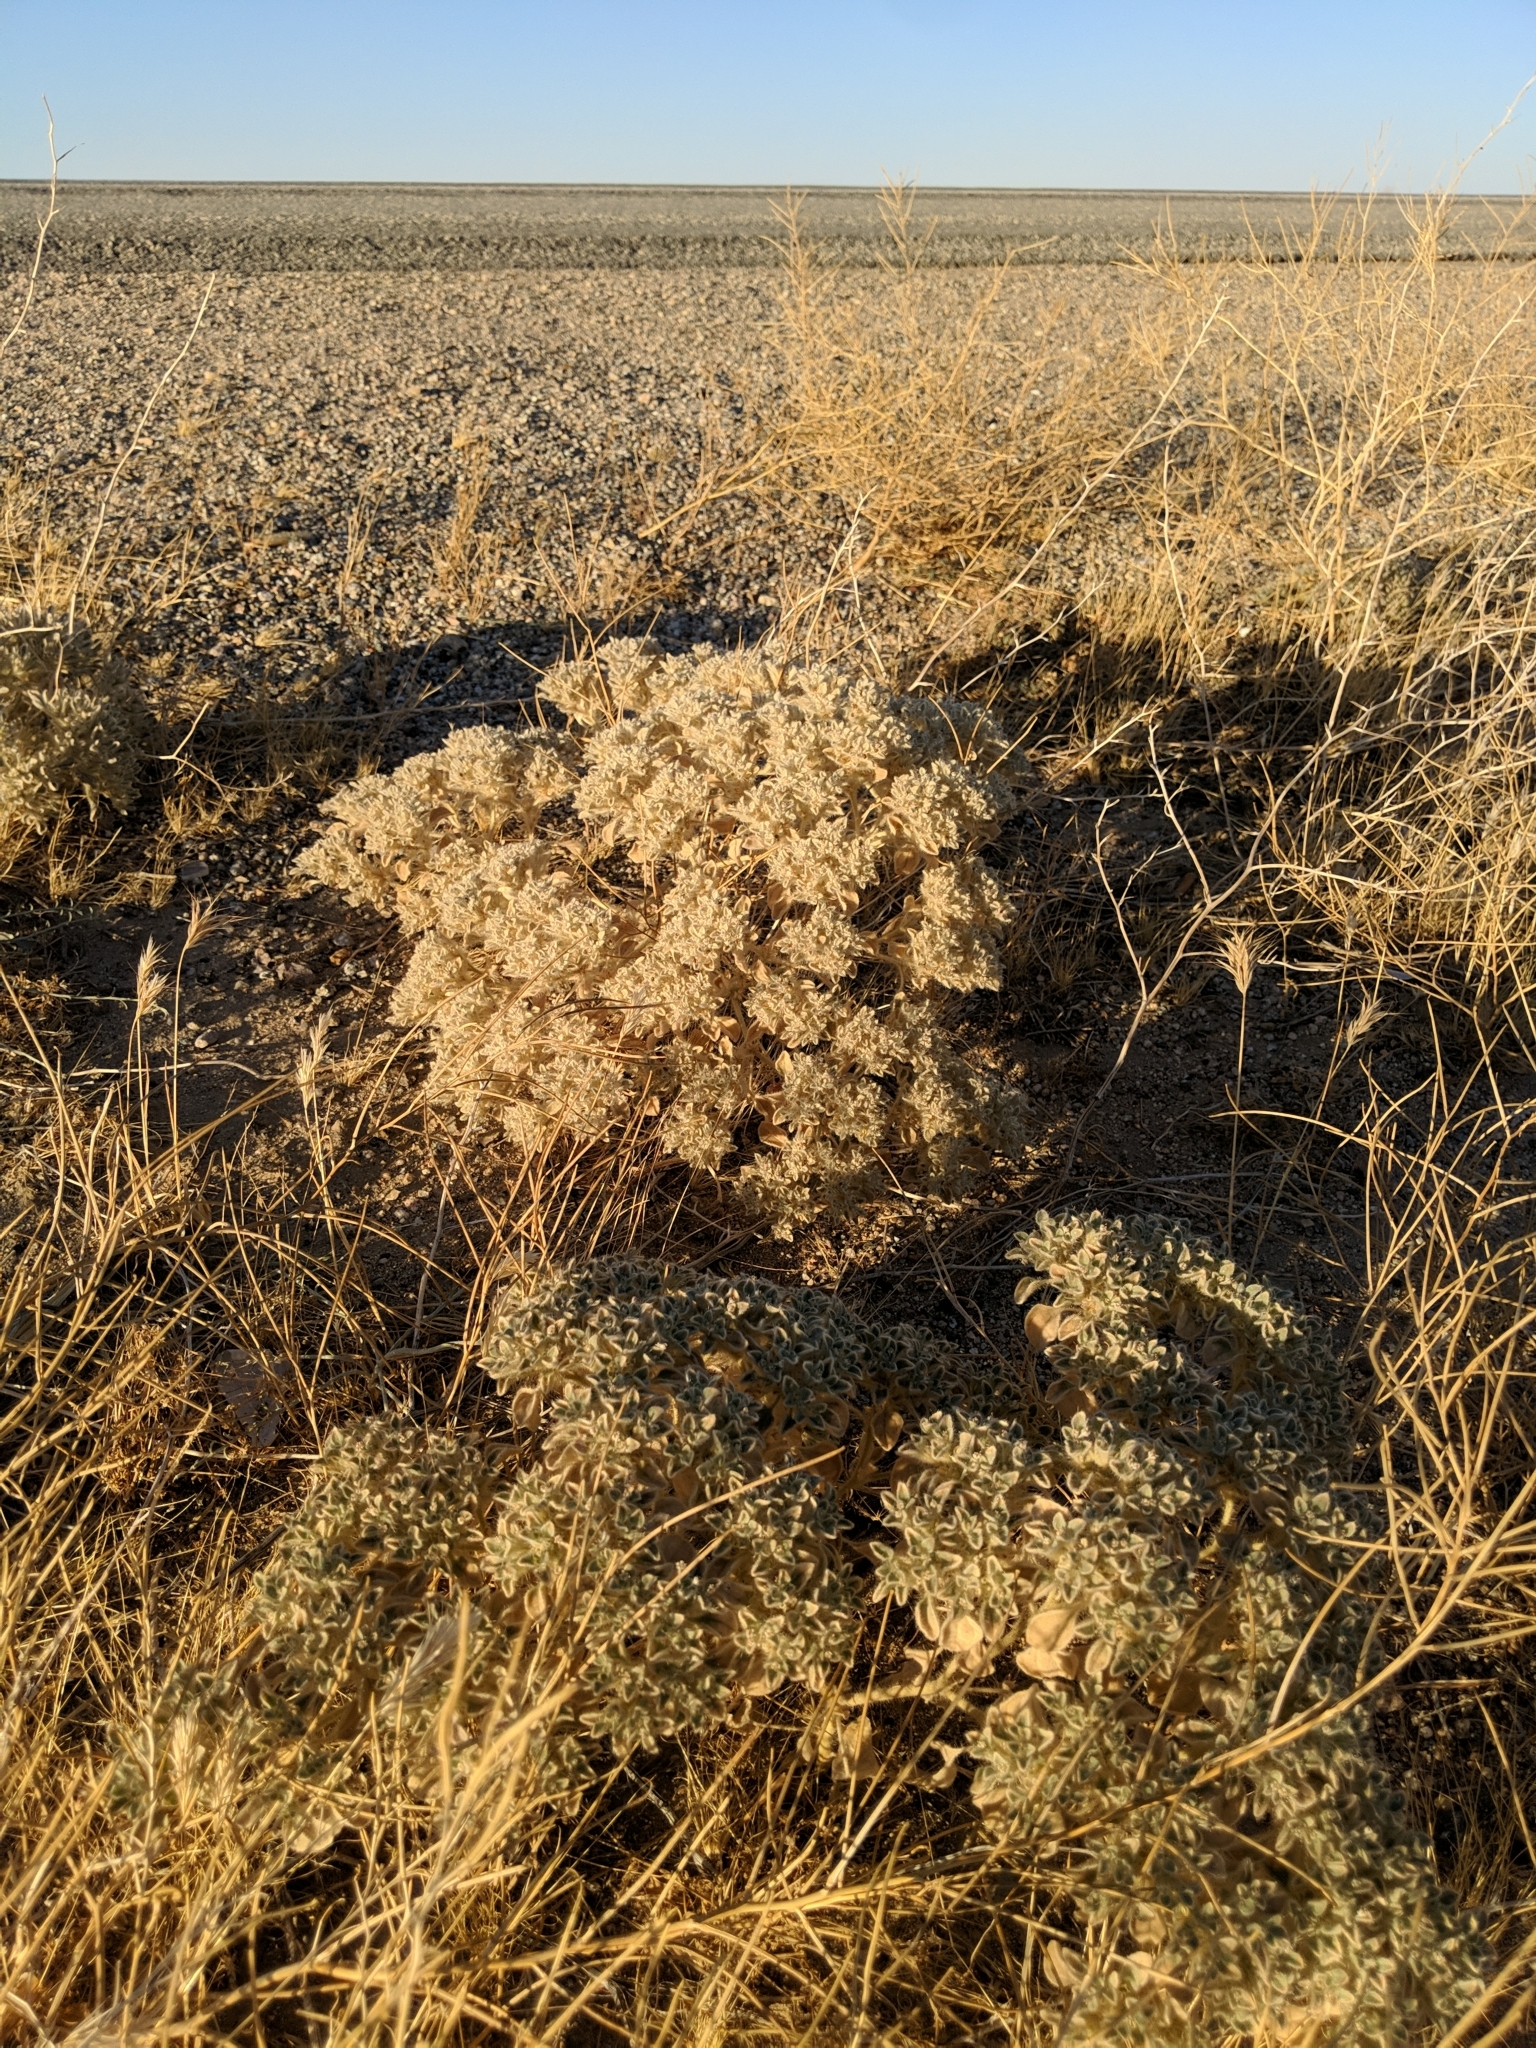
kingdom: Plantae
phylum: Tracheophyta
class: Magnoliopsida
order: Malpighiales
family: Euphorbiaceae
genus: Croton
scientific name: Croton setiger
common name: Dove weed
